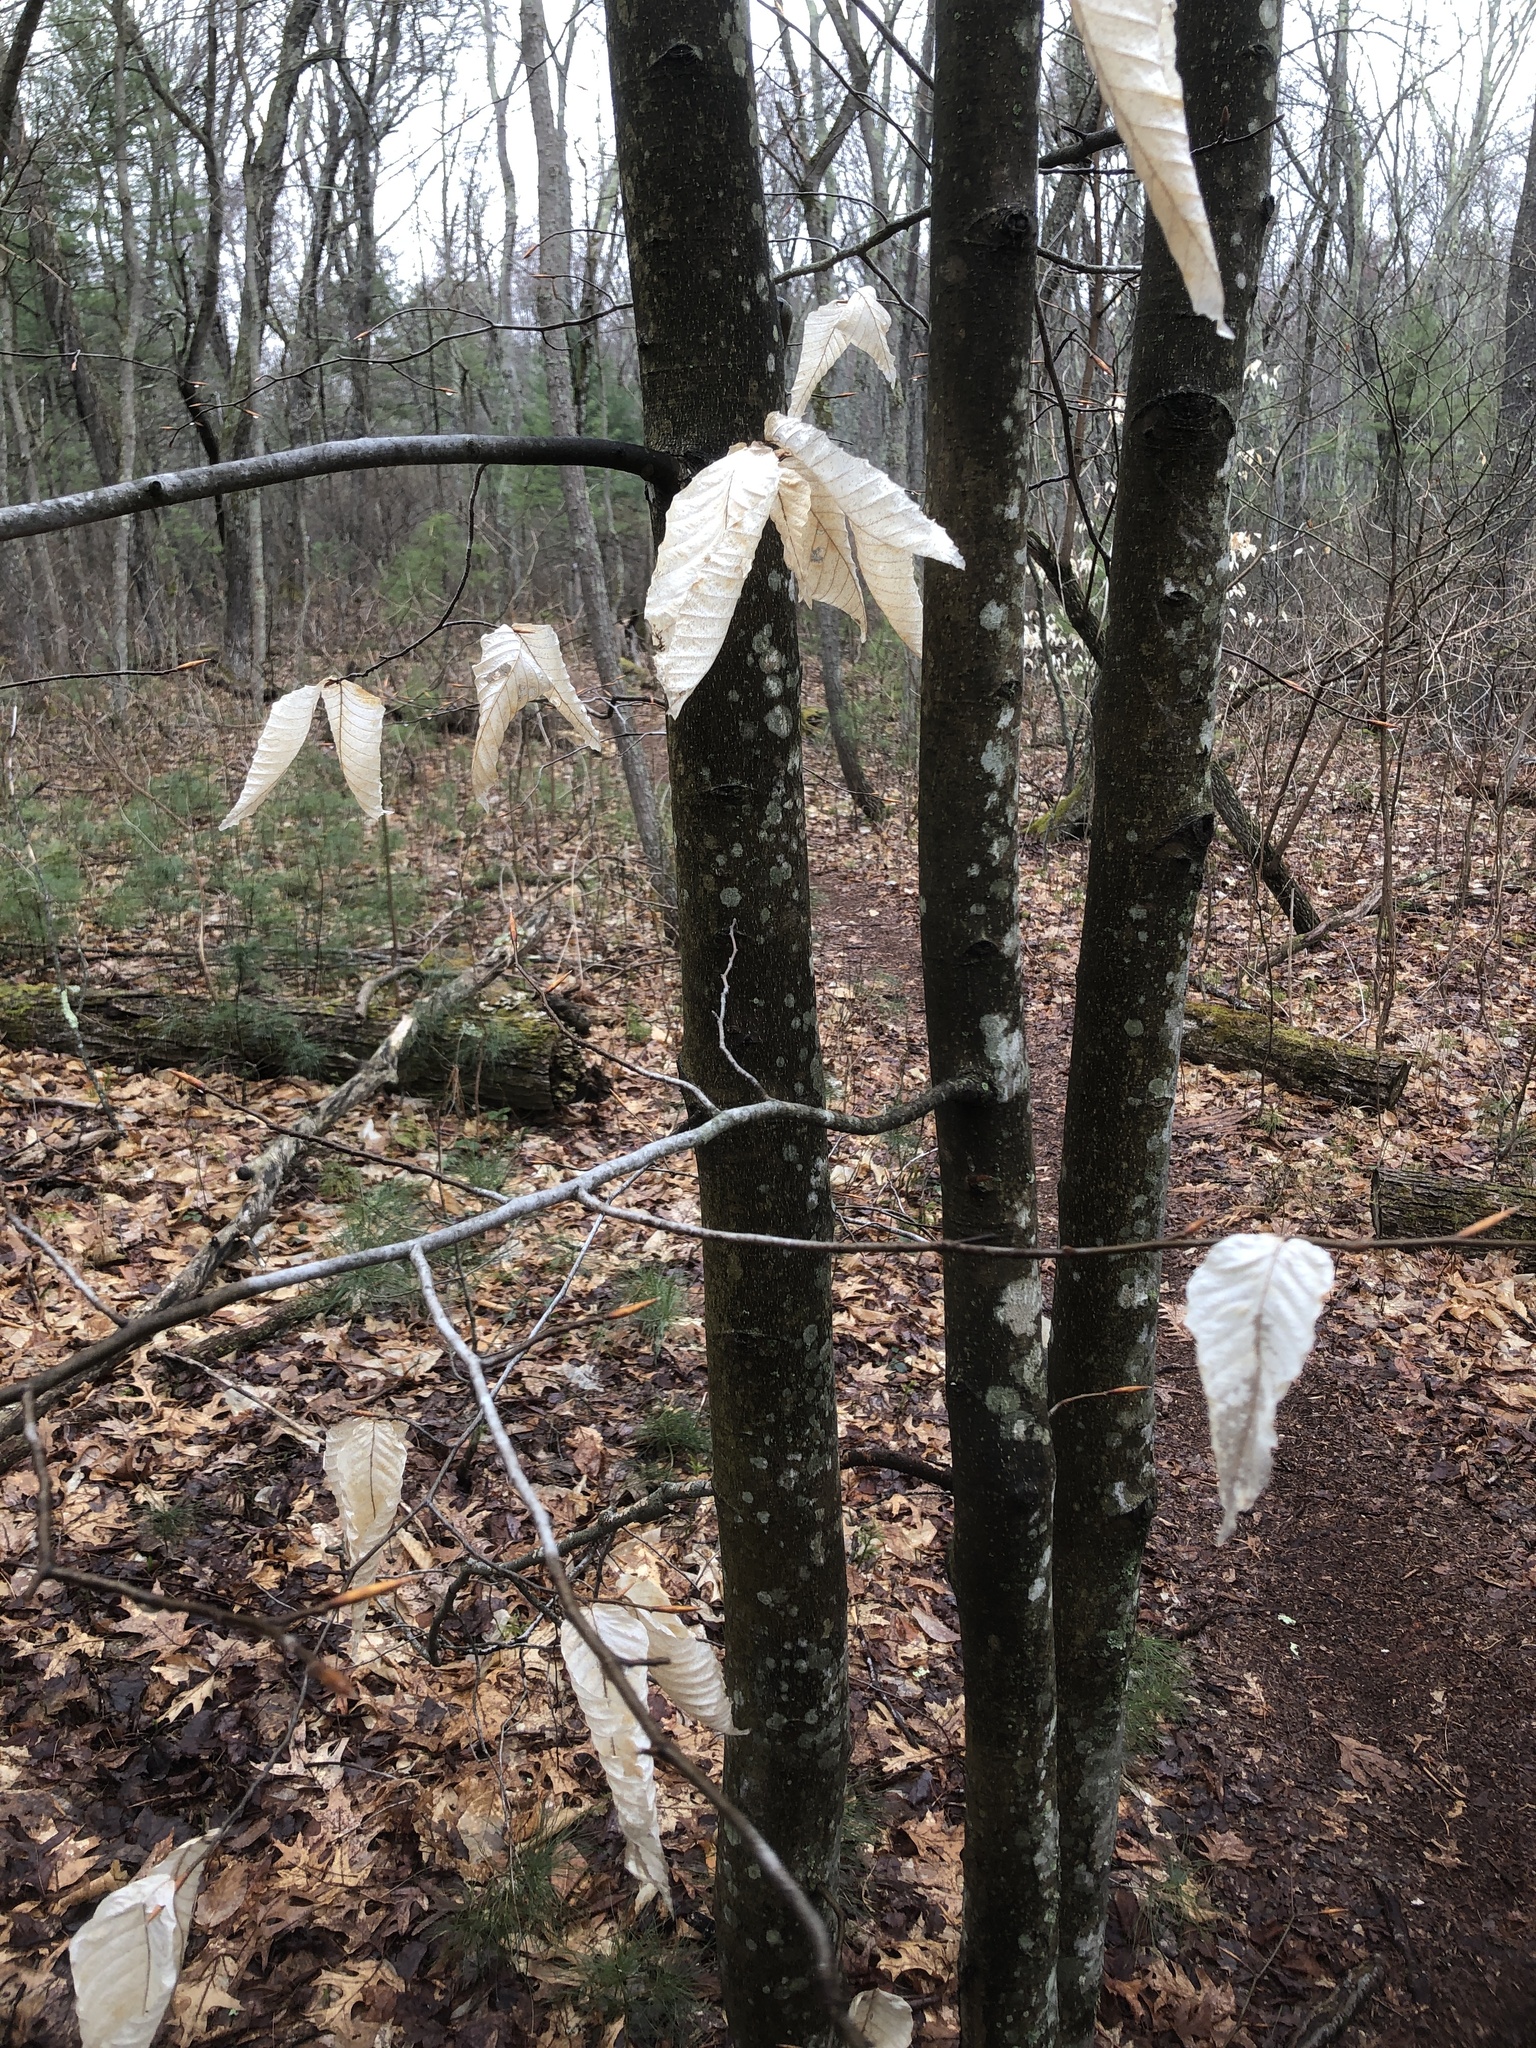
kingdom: Plantae
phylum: Tracheophyta
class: Magnoliopsida
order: Fagales
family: Fagaceae
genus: Fagus
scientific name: Fagus grandifolia
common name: American beech
